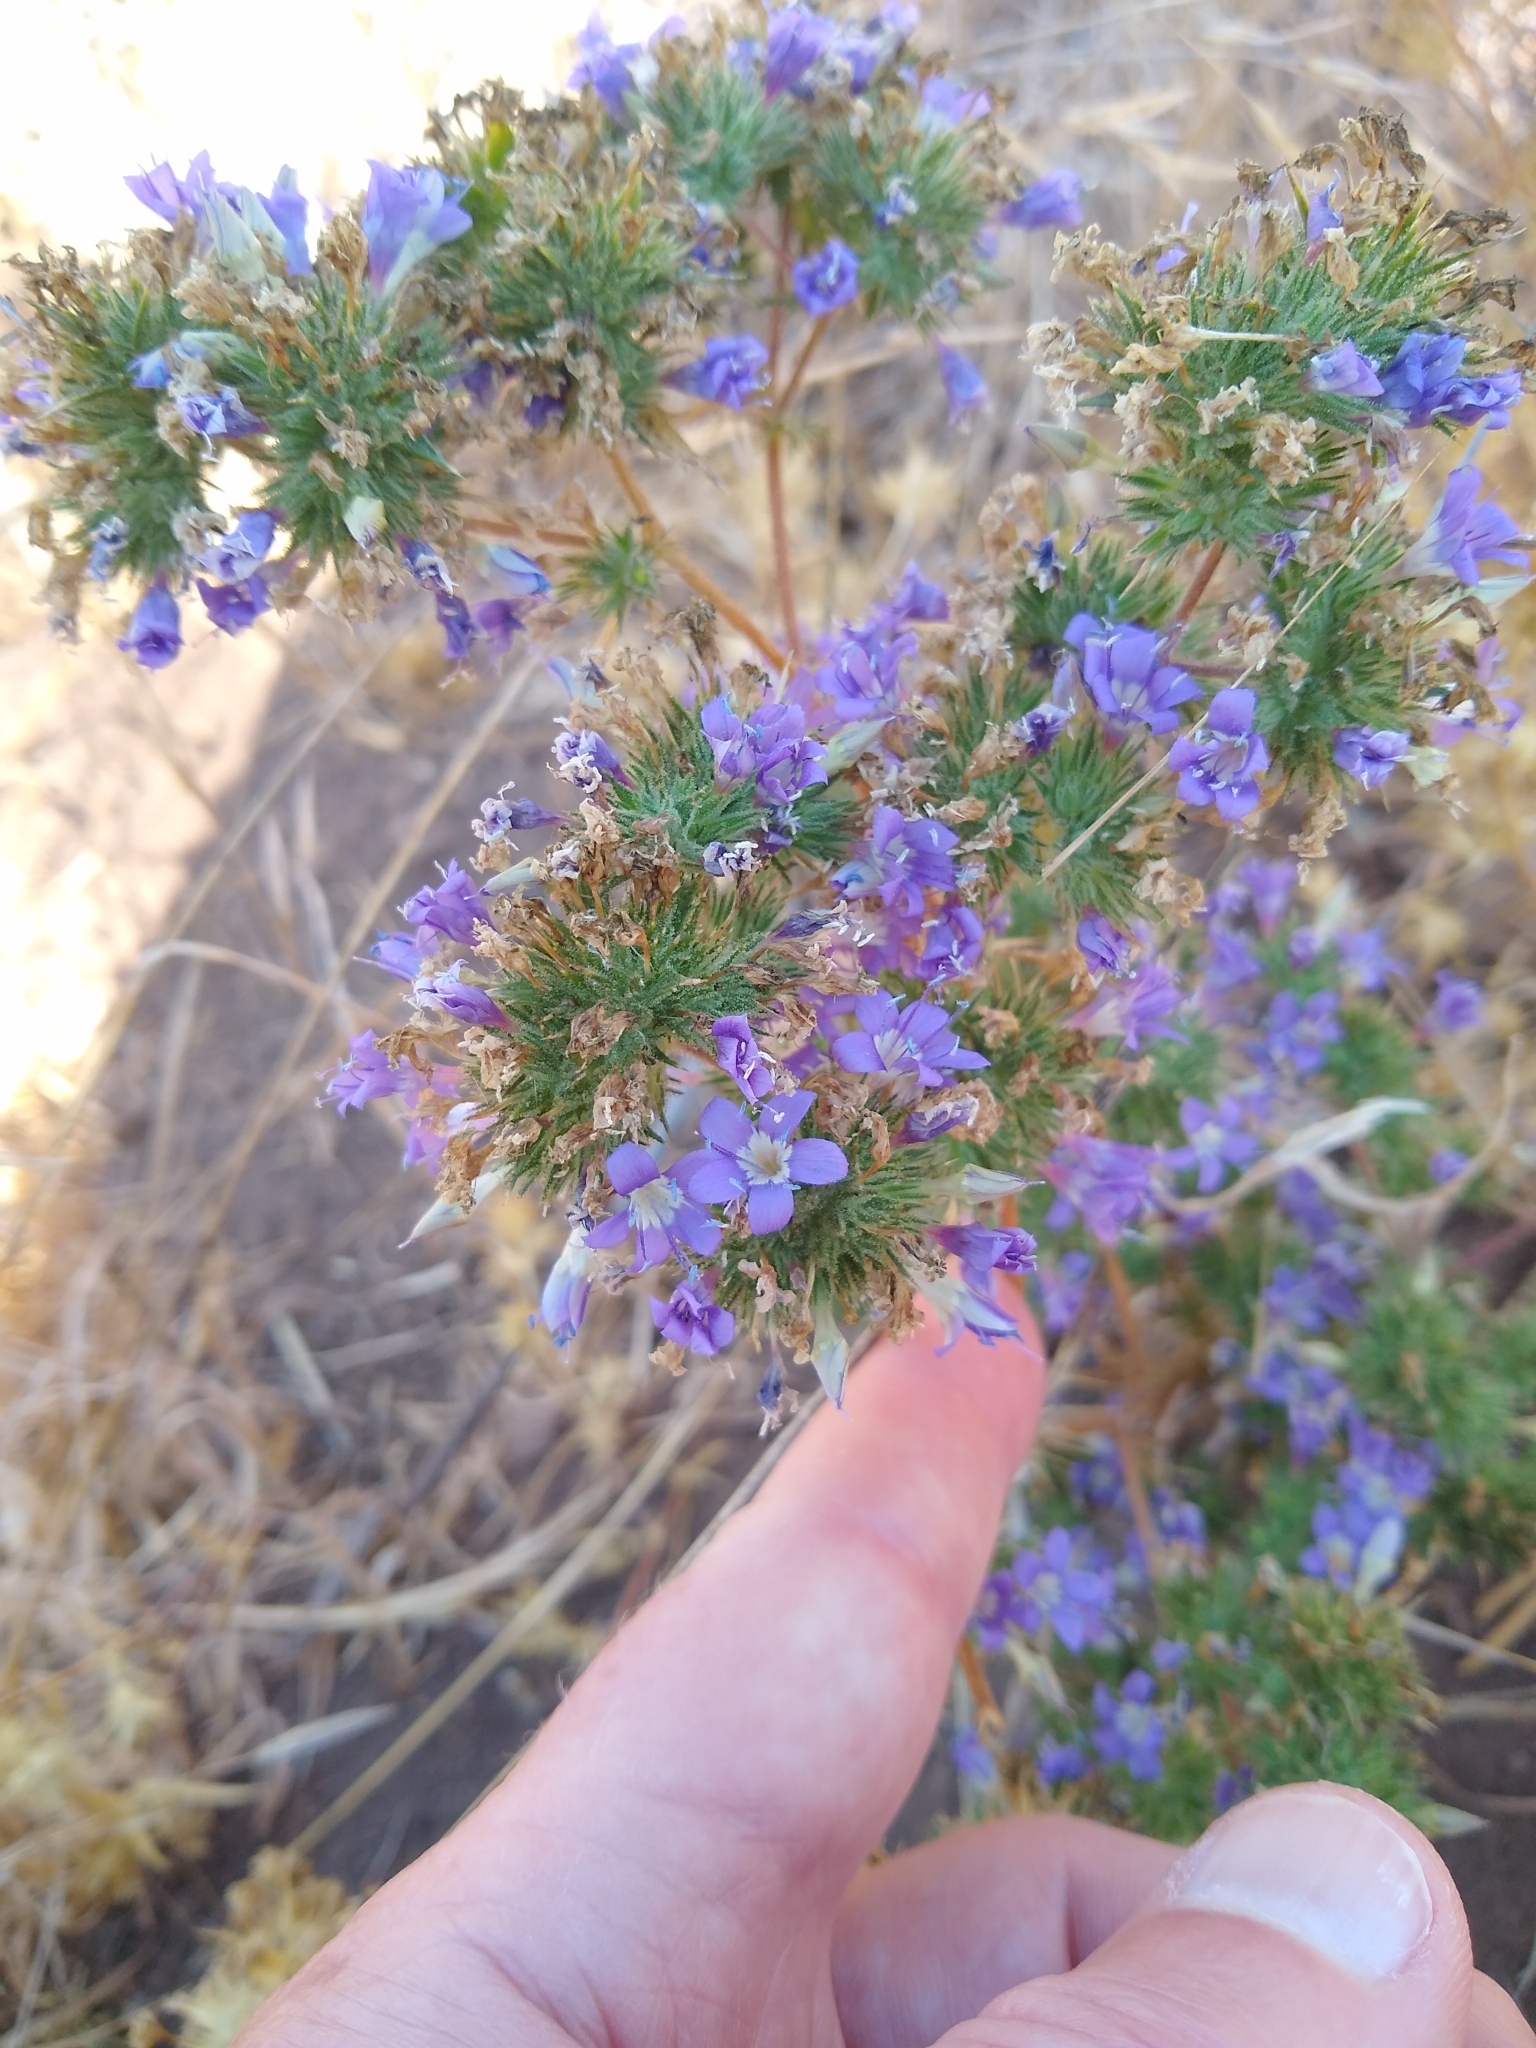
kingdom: Plantae
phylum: Tracheophyta
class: Magnoliopsida
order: Ericales
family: Polemoniaceae
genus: Navarretia
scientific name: Navarretia viscidula
